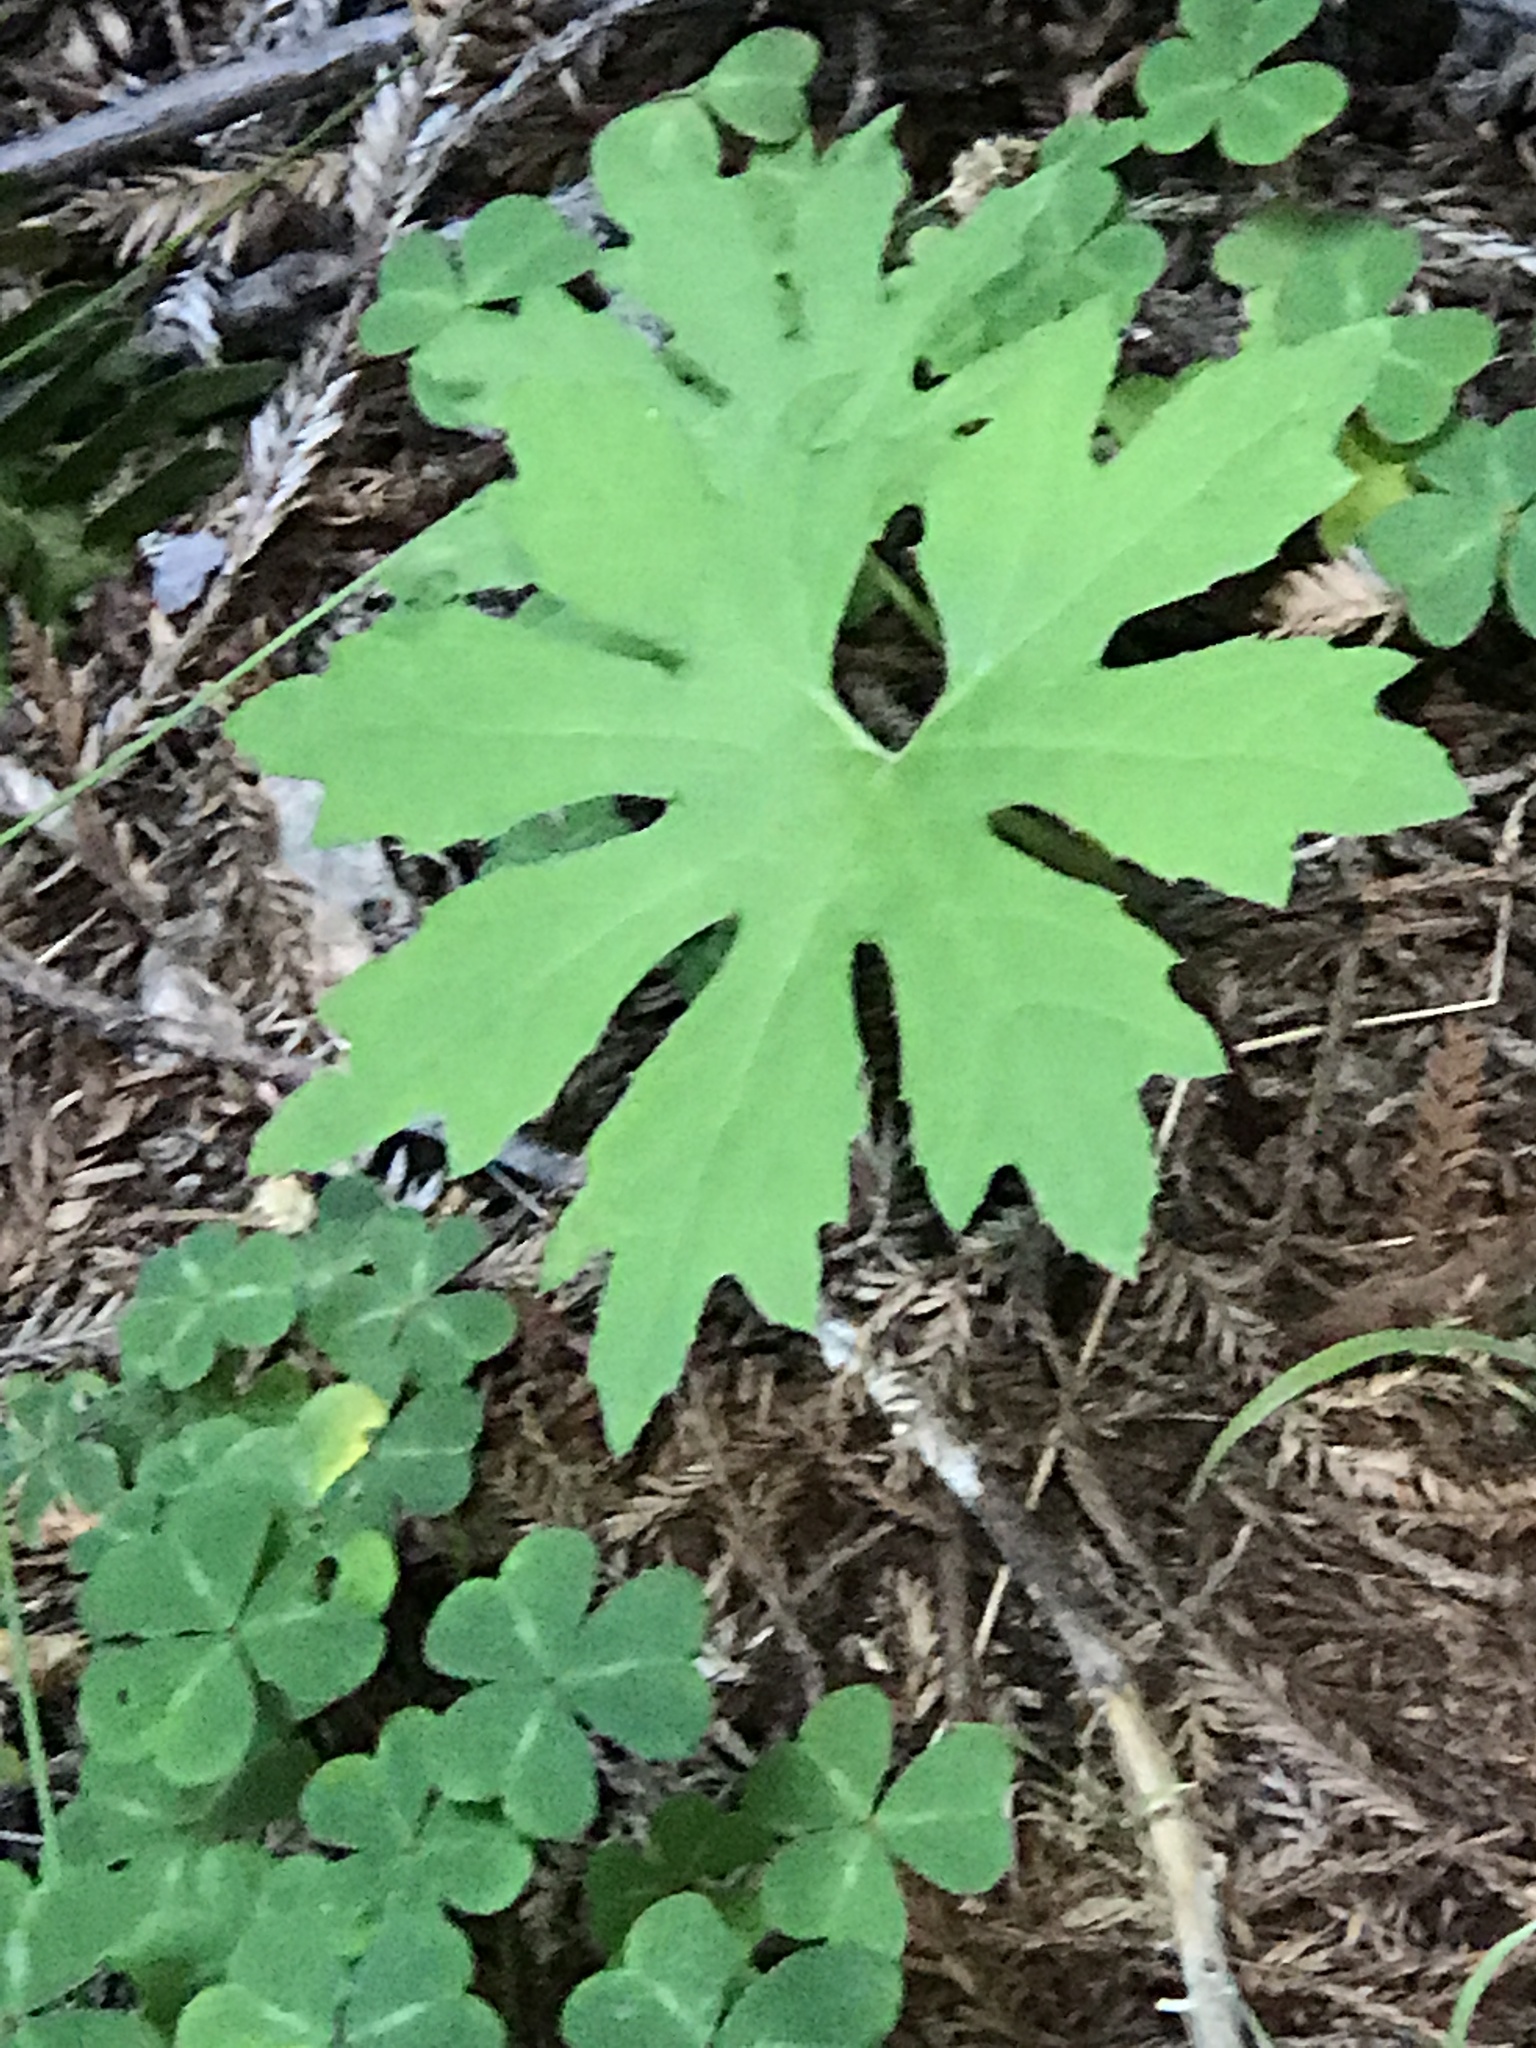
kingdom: Plantae
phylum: Tracheophyta
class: Magnoliopsida
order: Asterales
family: Asteraceae
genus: Petasites
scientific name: Petasites frigidus
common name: Arctic butterbur
